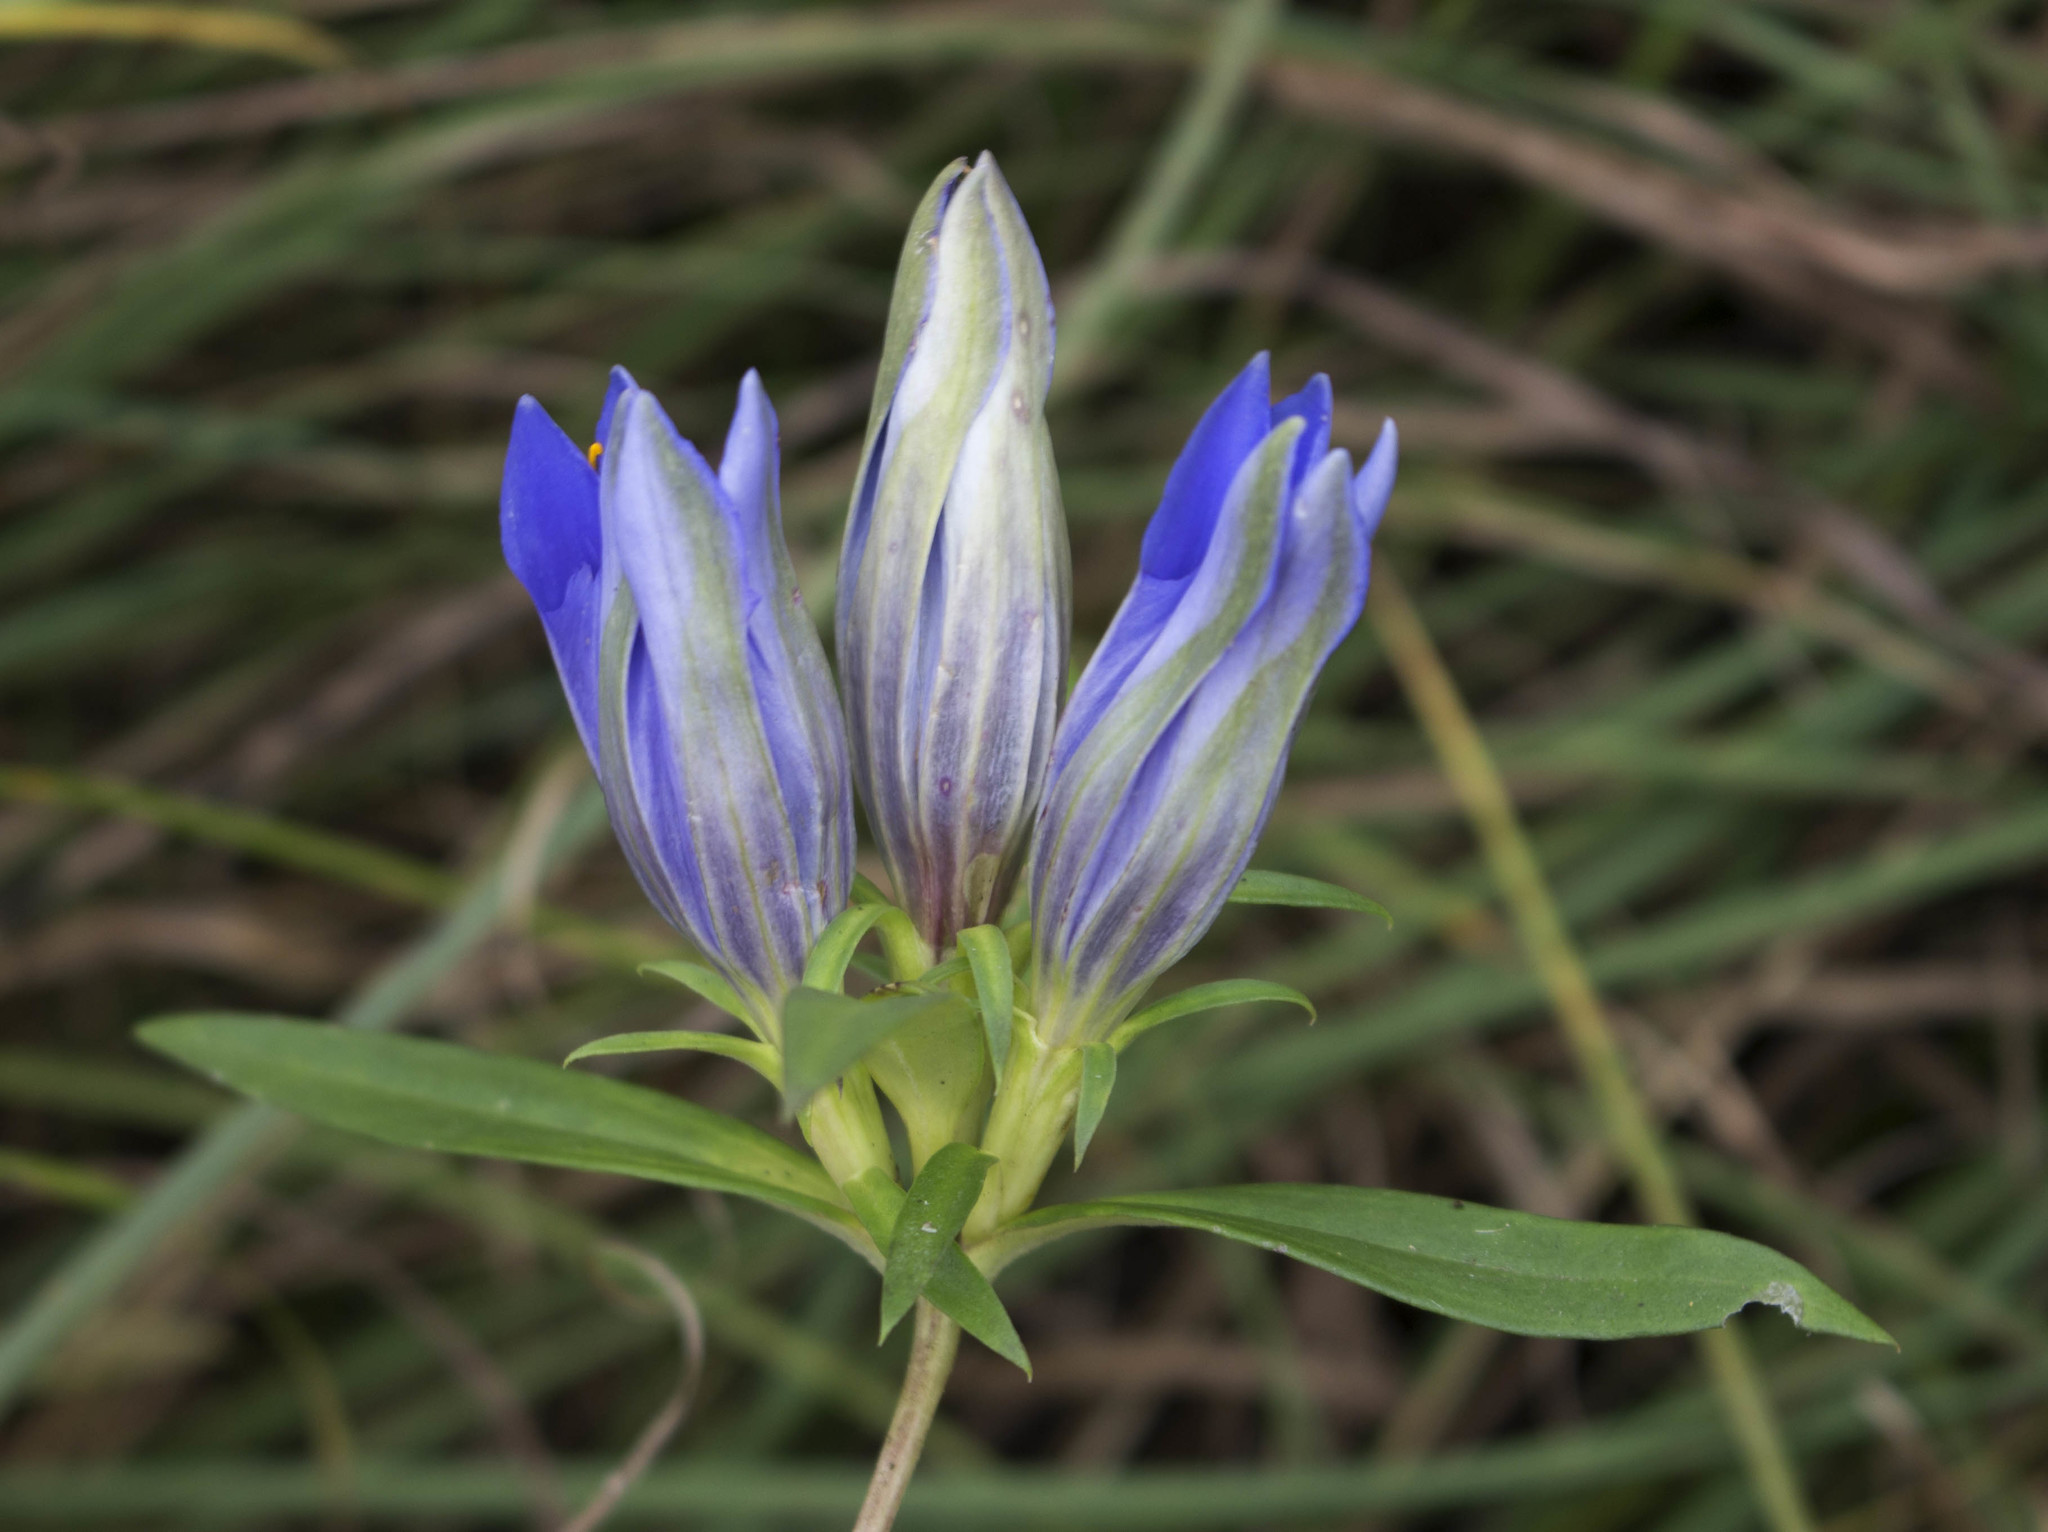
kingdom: Plantae
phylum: Tracheophyta
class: Magnoliopsida
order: Gentianales
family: Gentianaceae
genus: Gentiana
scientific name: Gentiana puberulenta
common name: Downy gentian
